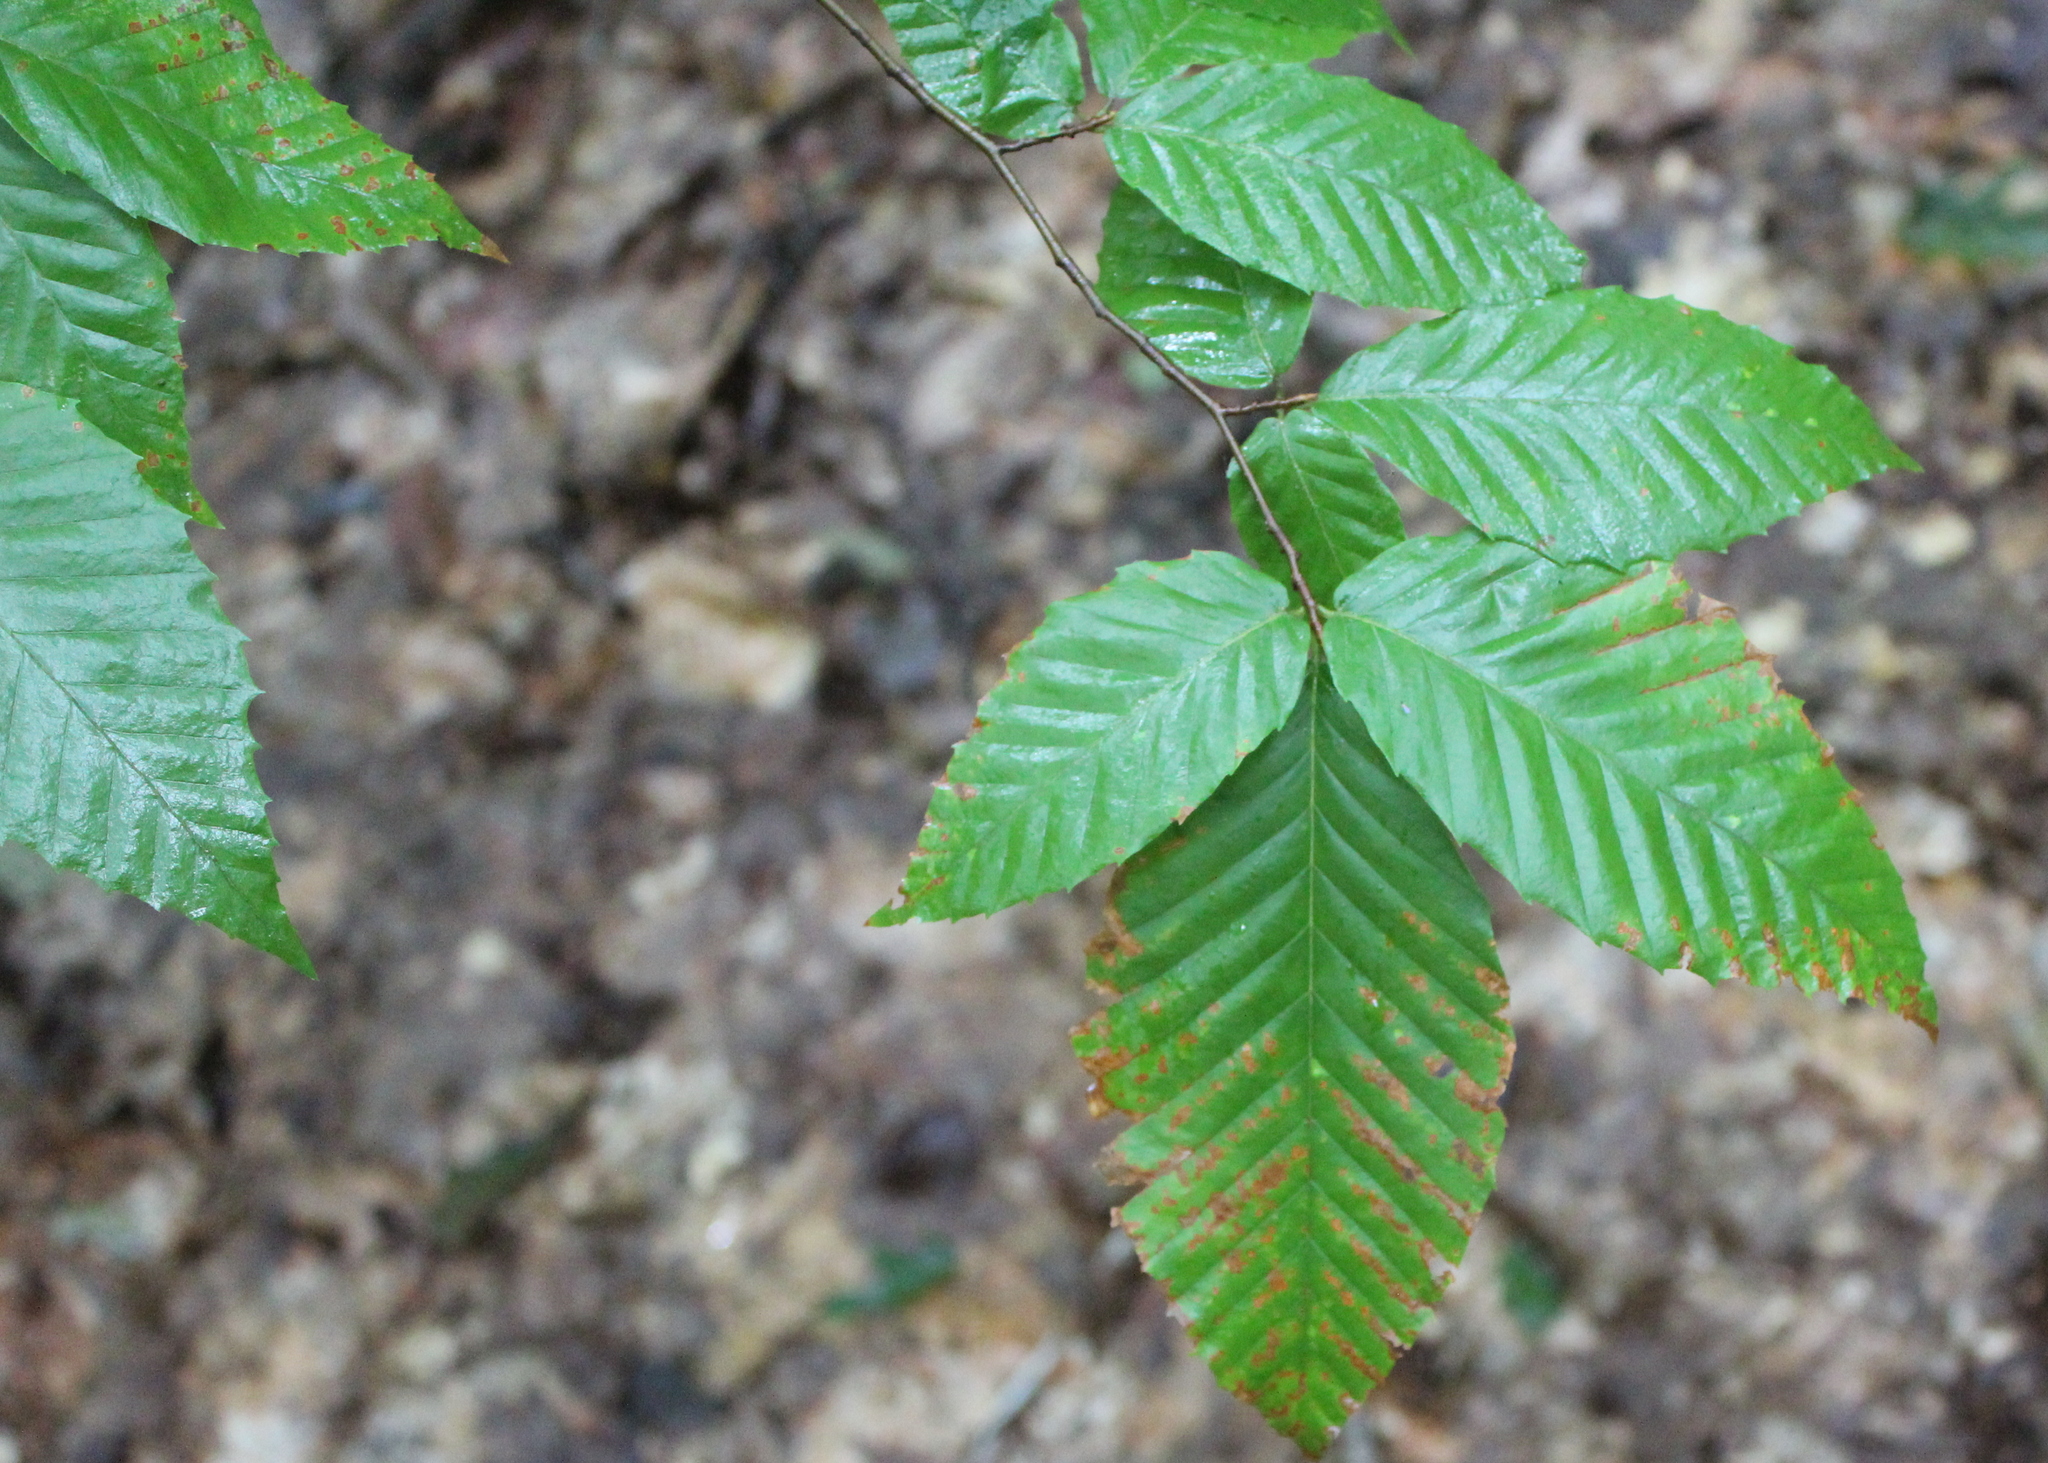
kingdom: Plantae
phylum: Tracheophyta
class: Magnoliopsida
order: Fagales
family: Fagaceae
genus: Fagus
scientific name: Fagus grandifolia
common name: American beech
